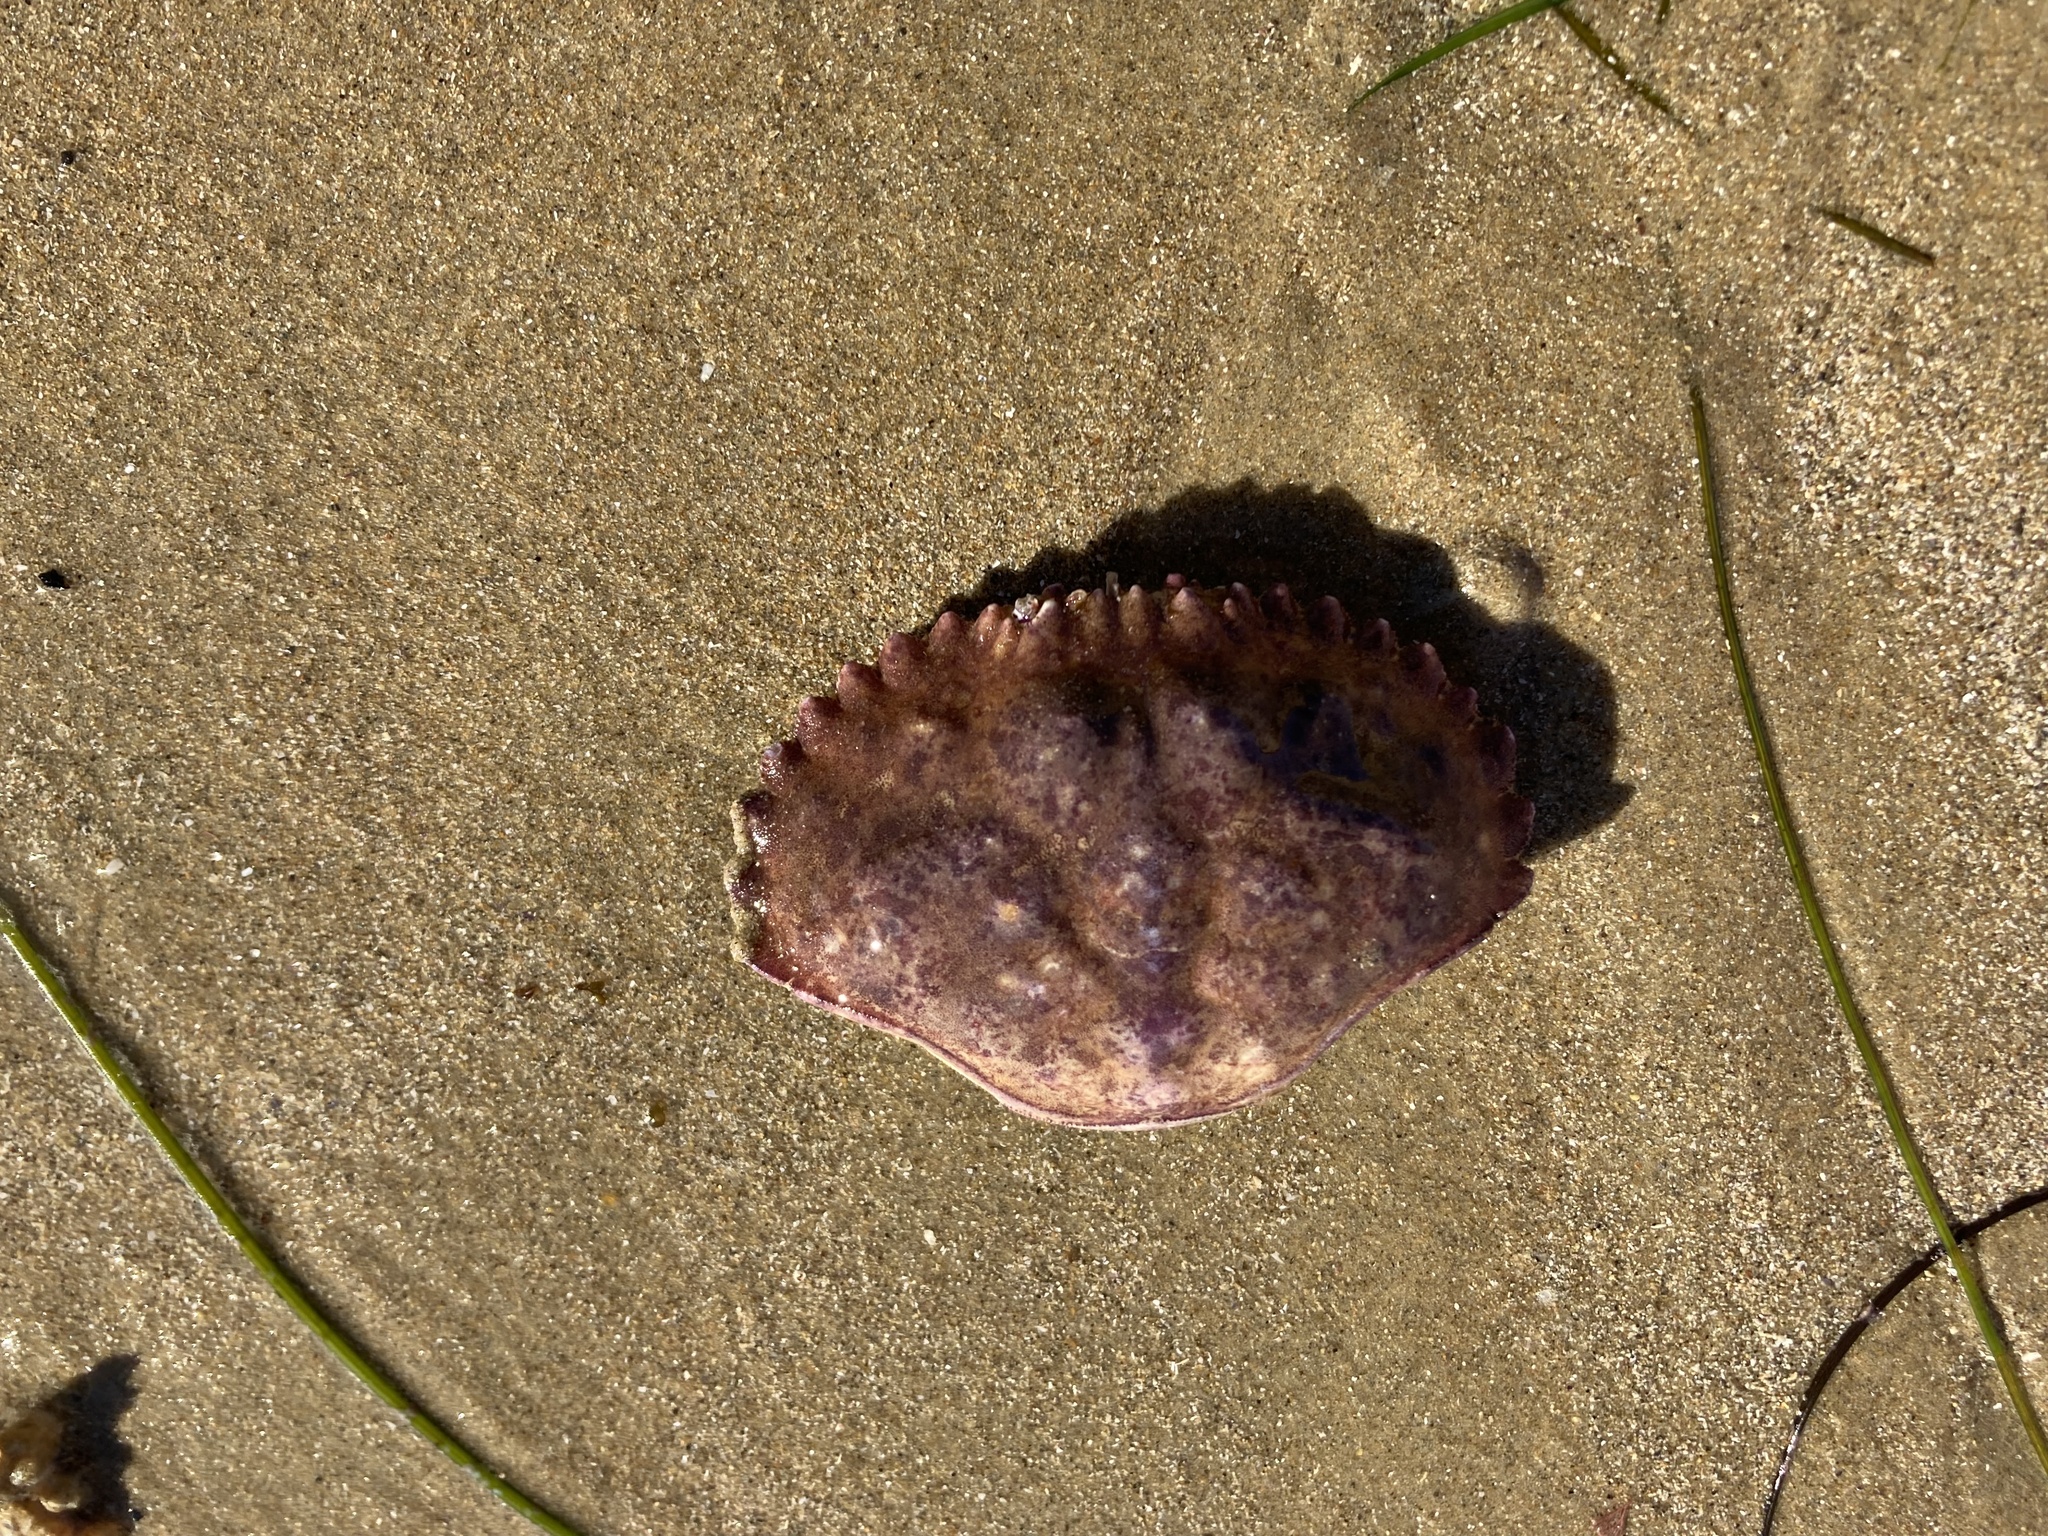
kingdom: Animalia
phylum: Arthropoda
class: Malacostraca
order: Decapoda
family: Cancridae
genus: Romaleon
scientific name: Romaleon antennarium
